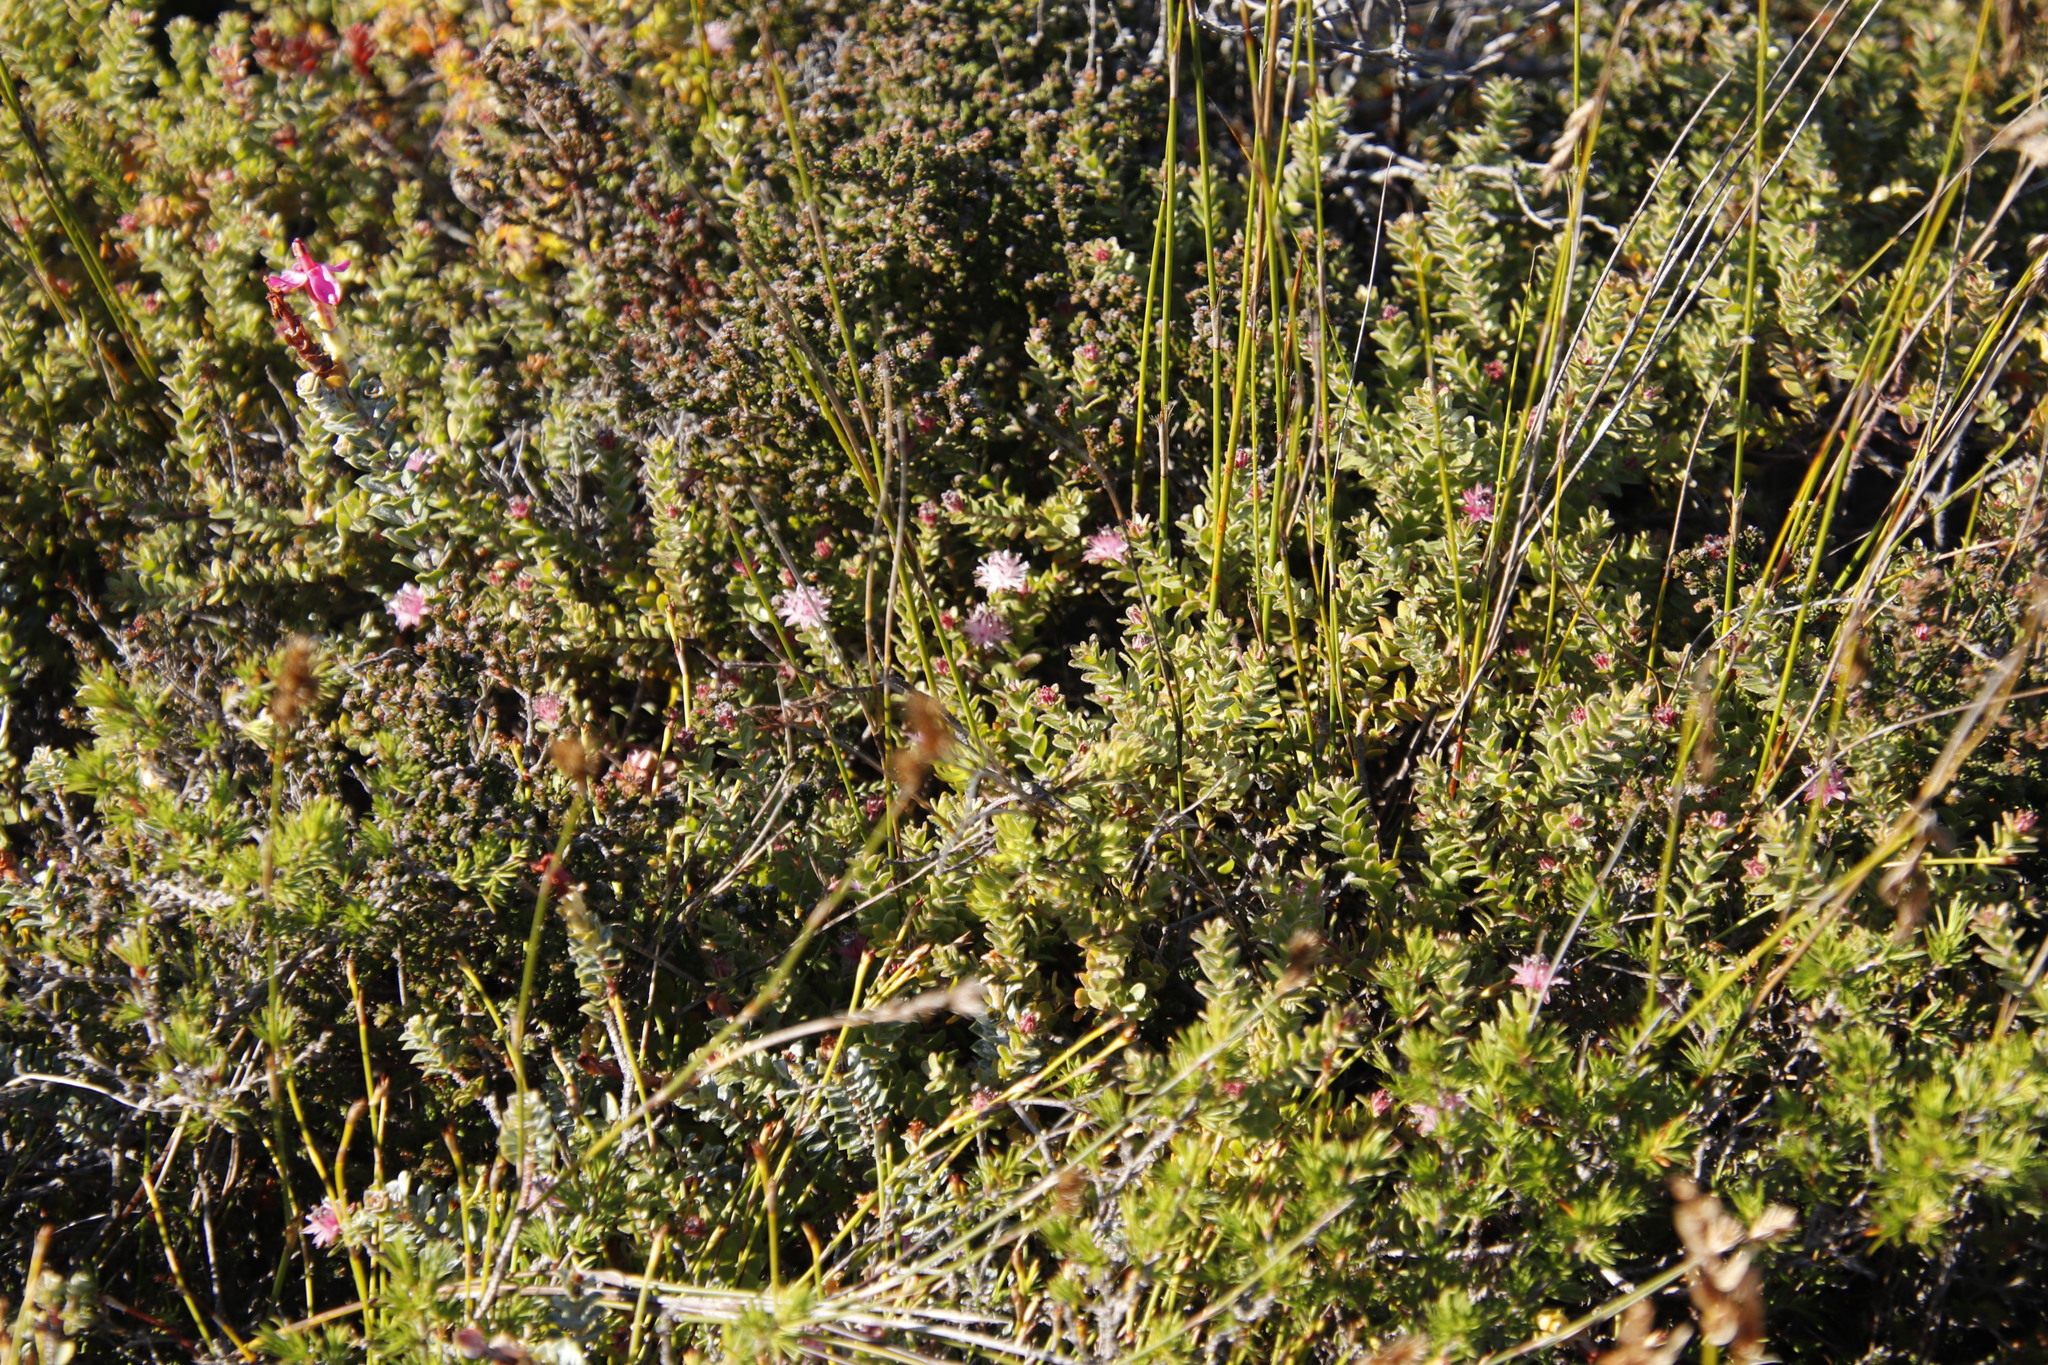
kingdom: Plantae
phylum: Tracheophyta
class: Magnoliopsida
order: Proteales
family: Proteaceae
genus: Diastella
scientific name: Diastella divaricata
